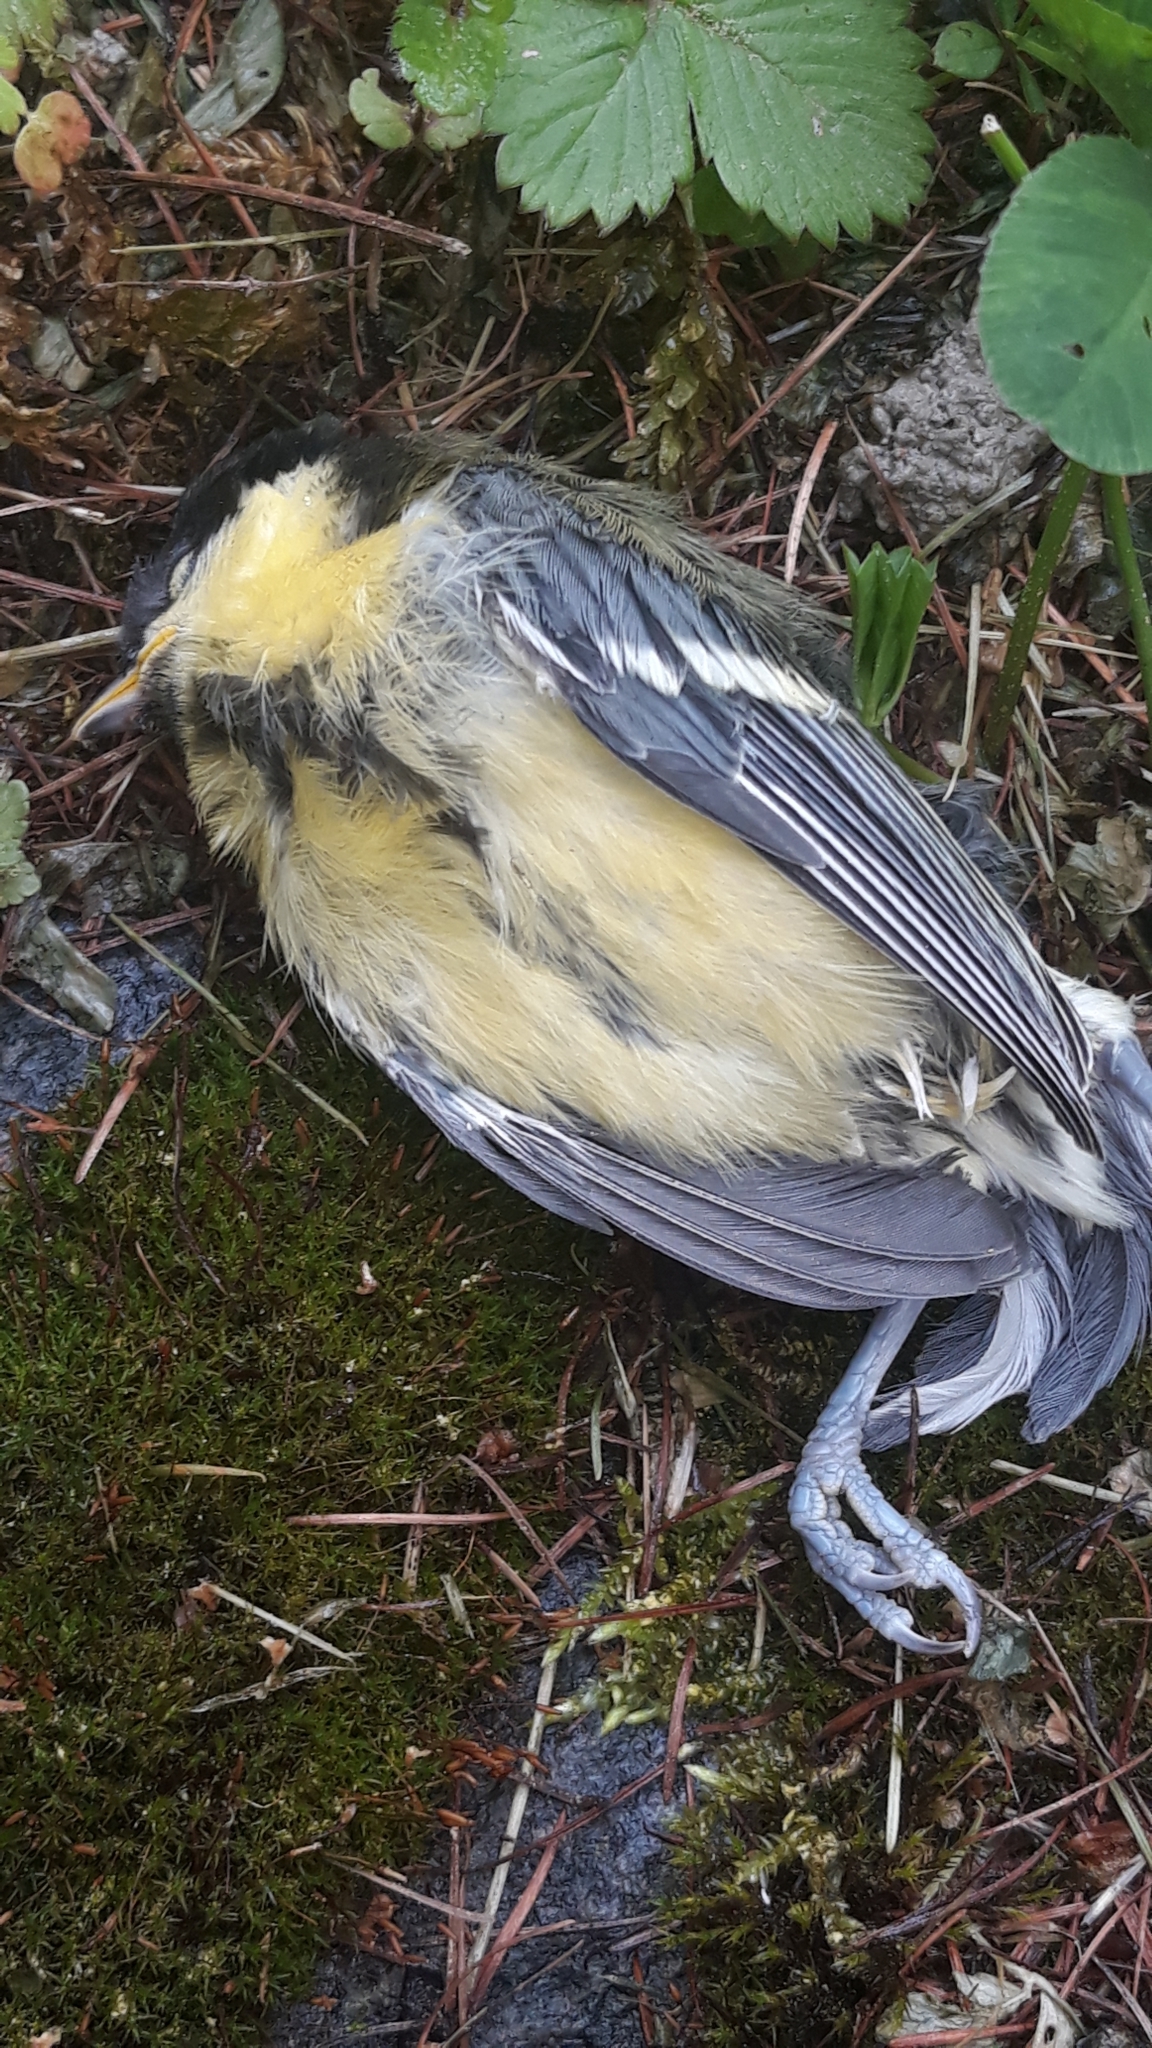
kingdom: Animalia
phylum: Chordata
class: Aves
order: Passeriformes
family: Paridae
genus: Parus
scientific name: Parus major
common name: Great tit
